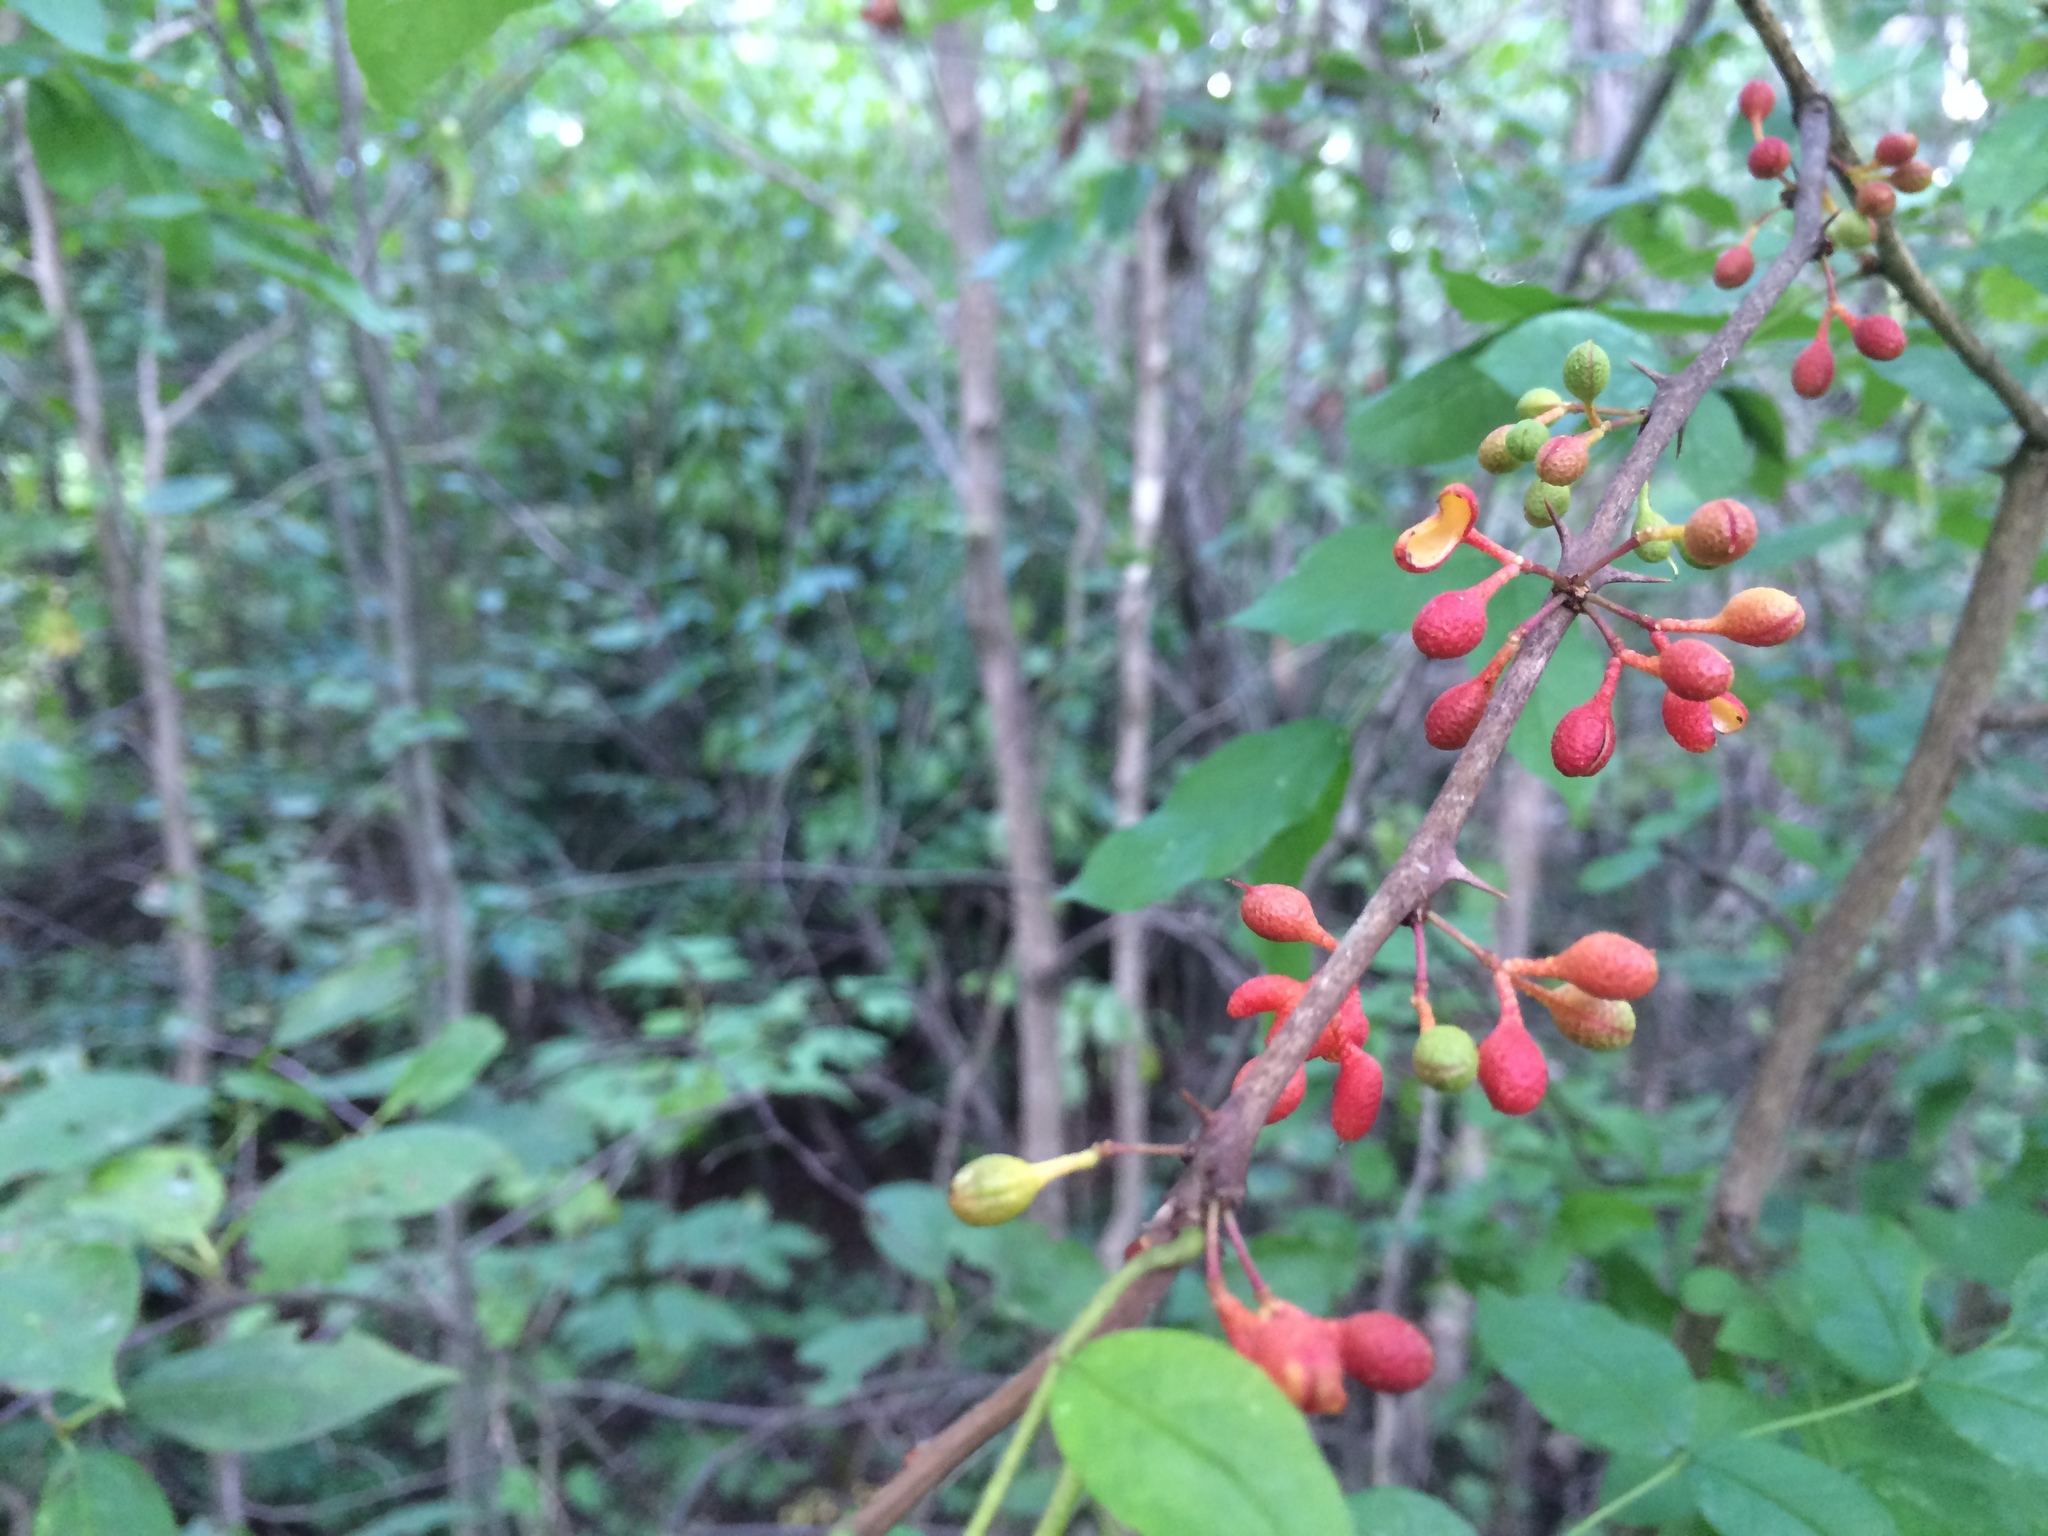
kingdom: Plantae
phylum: Tracheophyta
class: Magnoliopsida
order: Sapindales
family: Rutaceae
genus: Zanthoxylum
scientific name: Zanthoxylum americanum
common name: Northern prickly-ash
